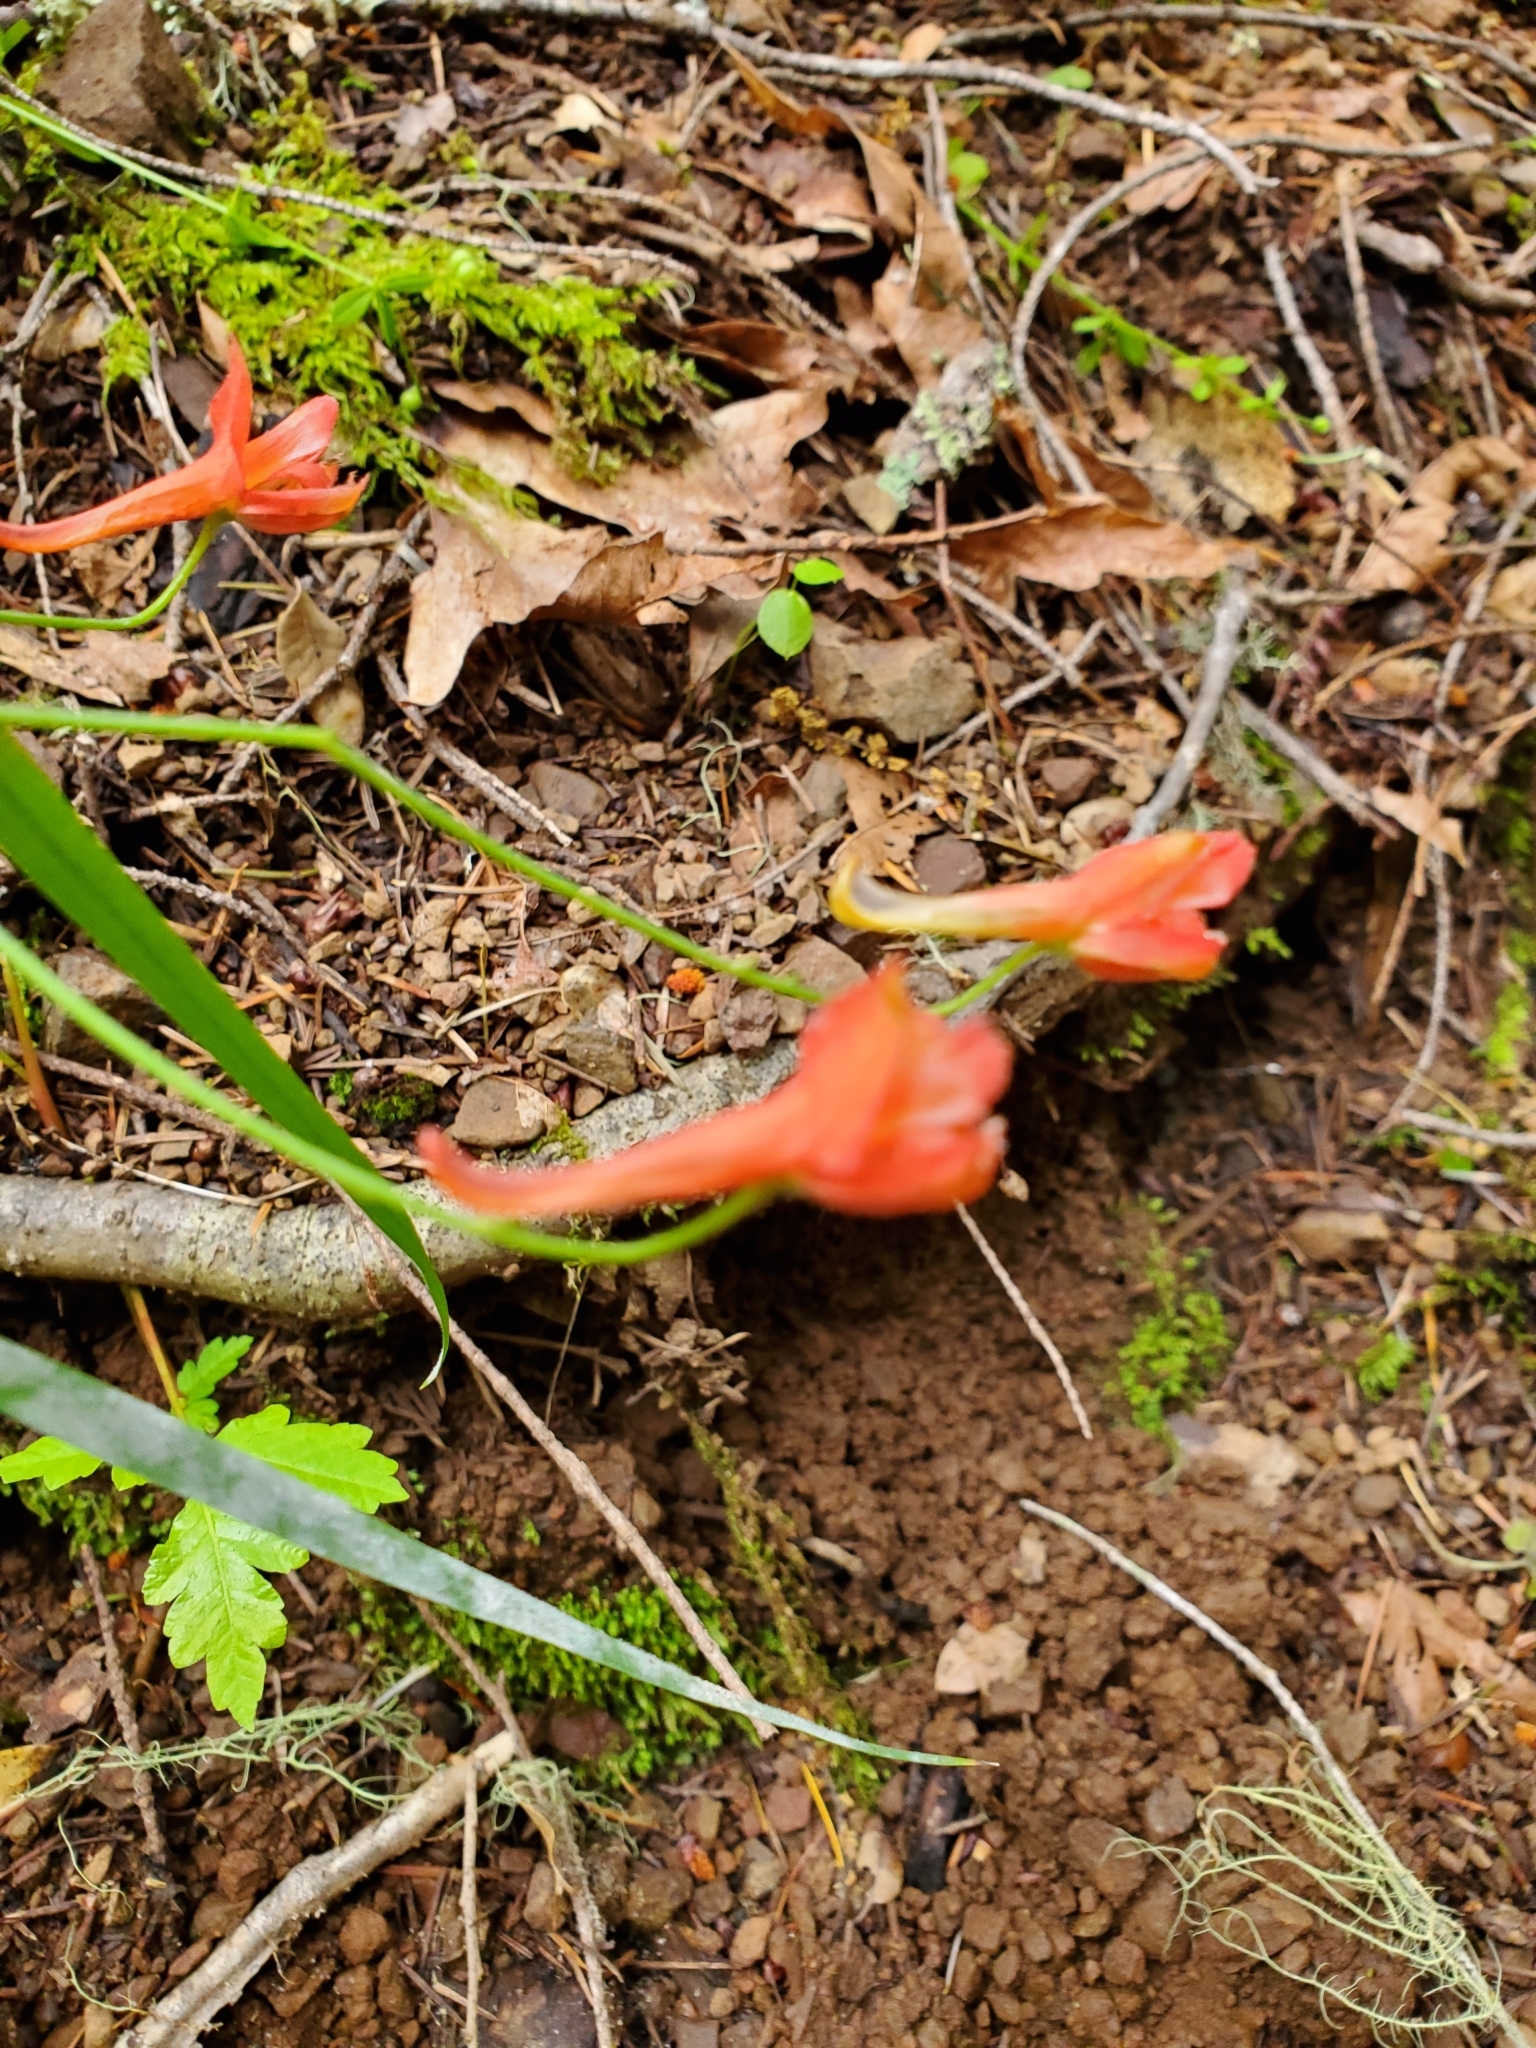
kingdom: Plantae
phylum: Tracheophyta
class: Magnoliopsida
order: Ranunculales
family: Ranunculaceae
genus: Delphinium
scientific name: Delphinium nudicaule
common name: Red larkspur
